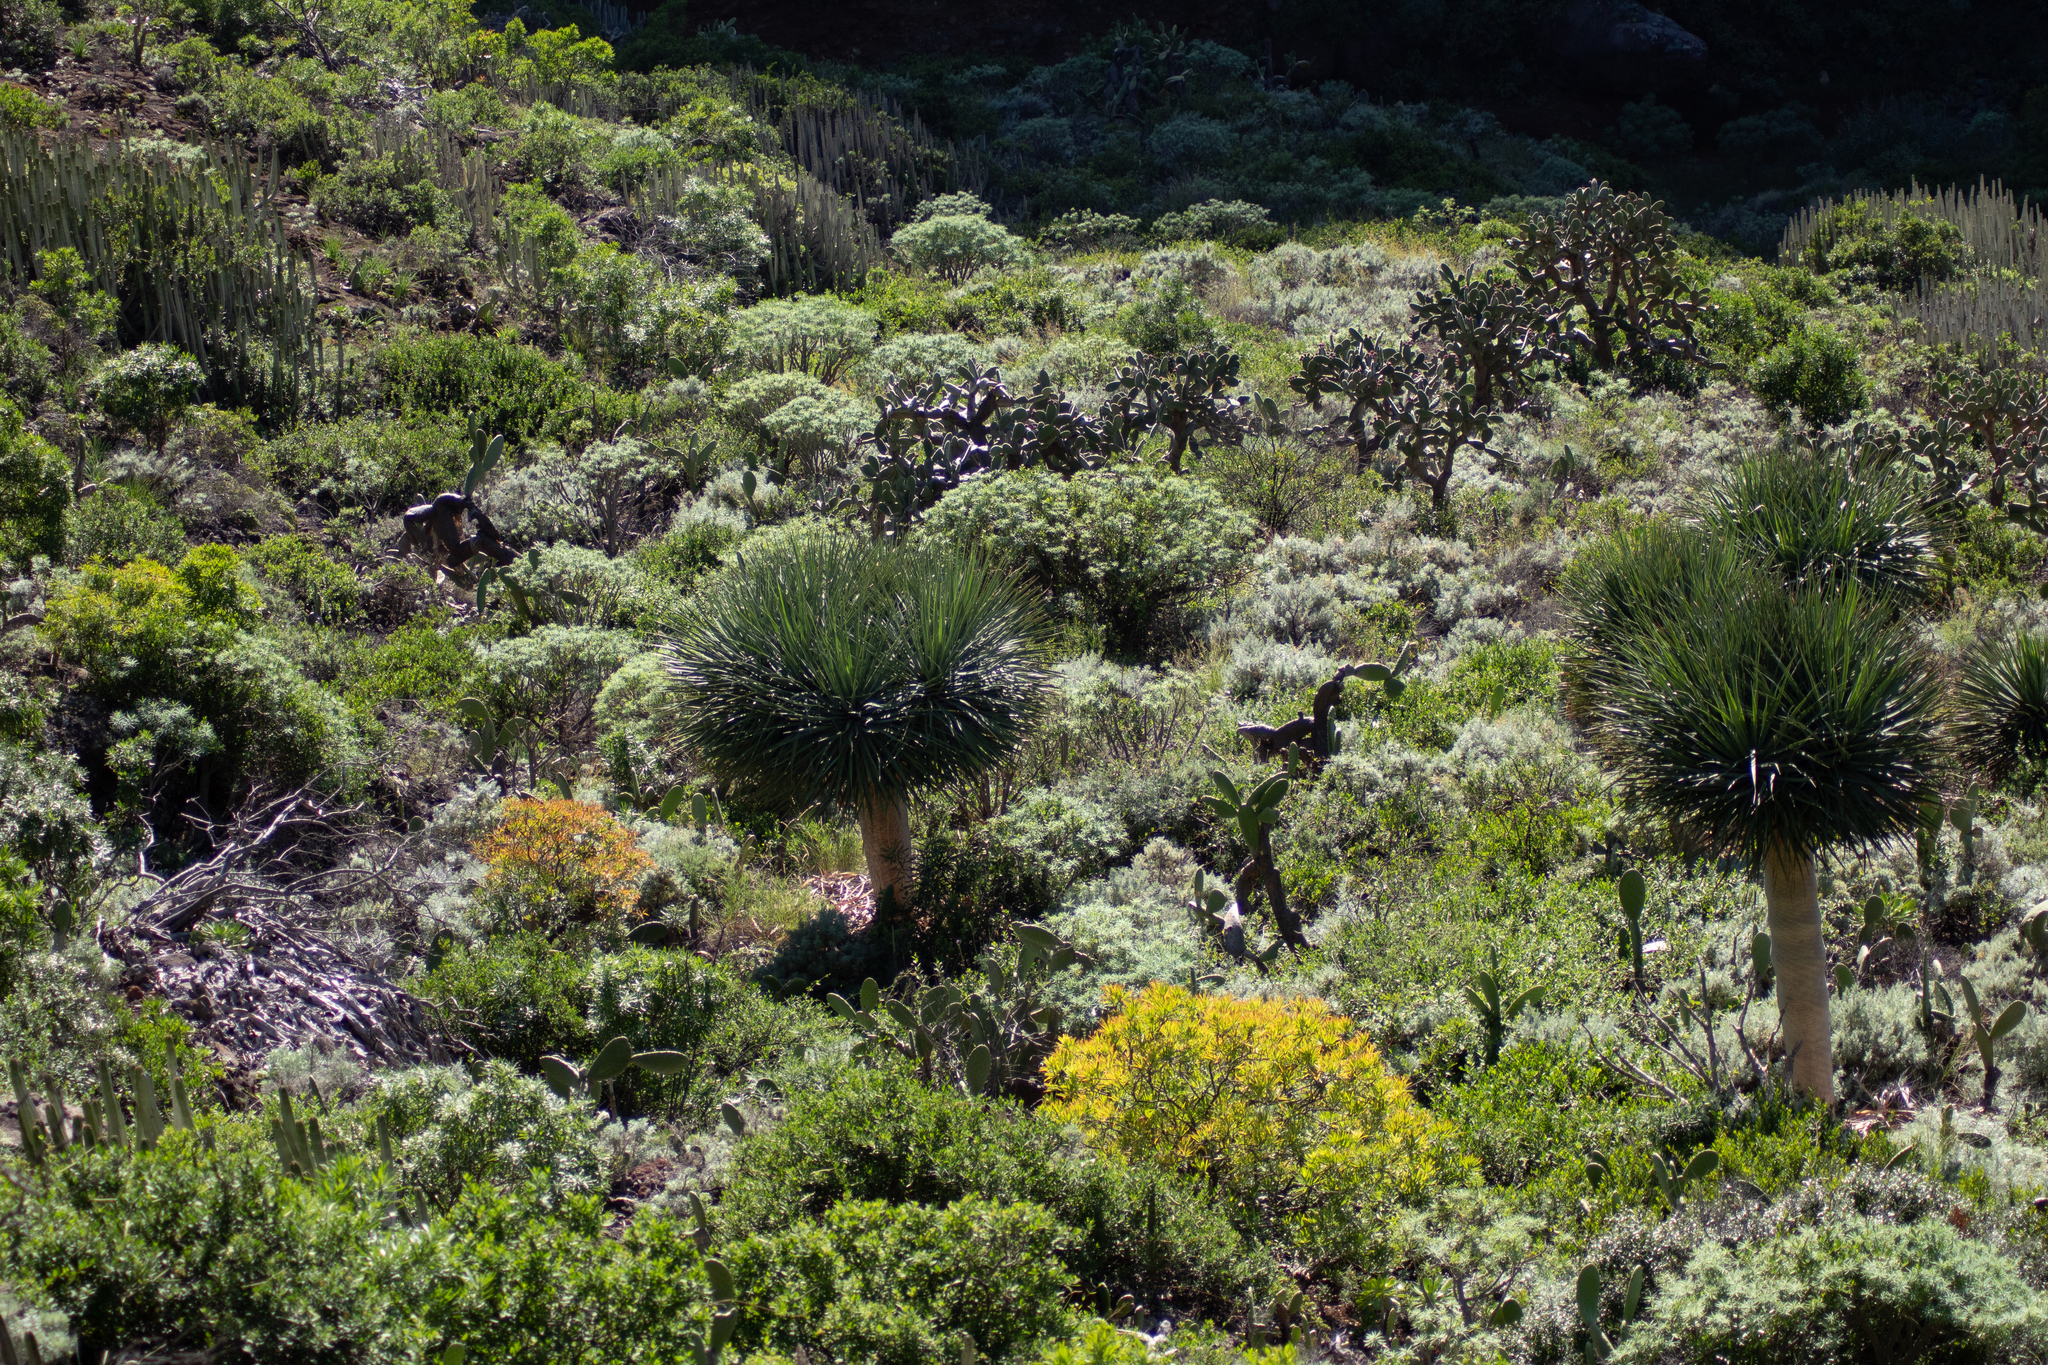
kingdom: Plantae
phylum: Tracheophyta
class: Liliopsida
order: Asparagales
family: Asparagaceae
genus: Dracaena
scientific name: Dracaena draco
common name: Canary island dragon tree
